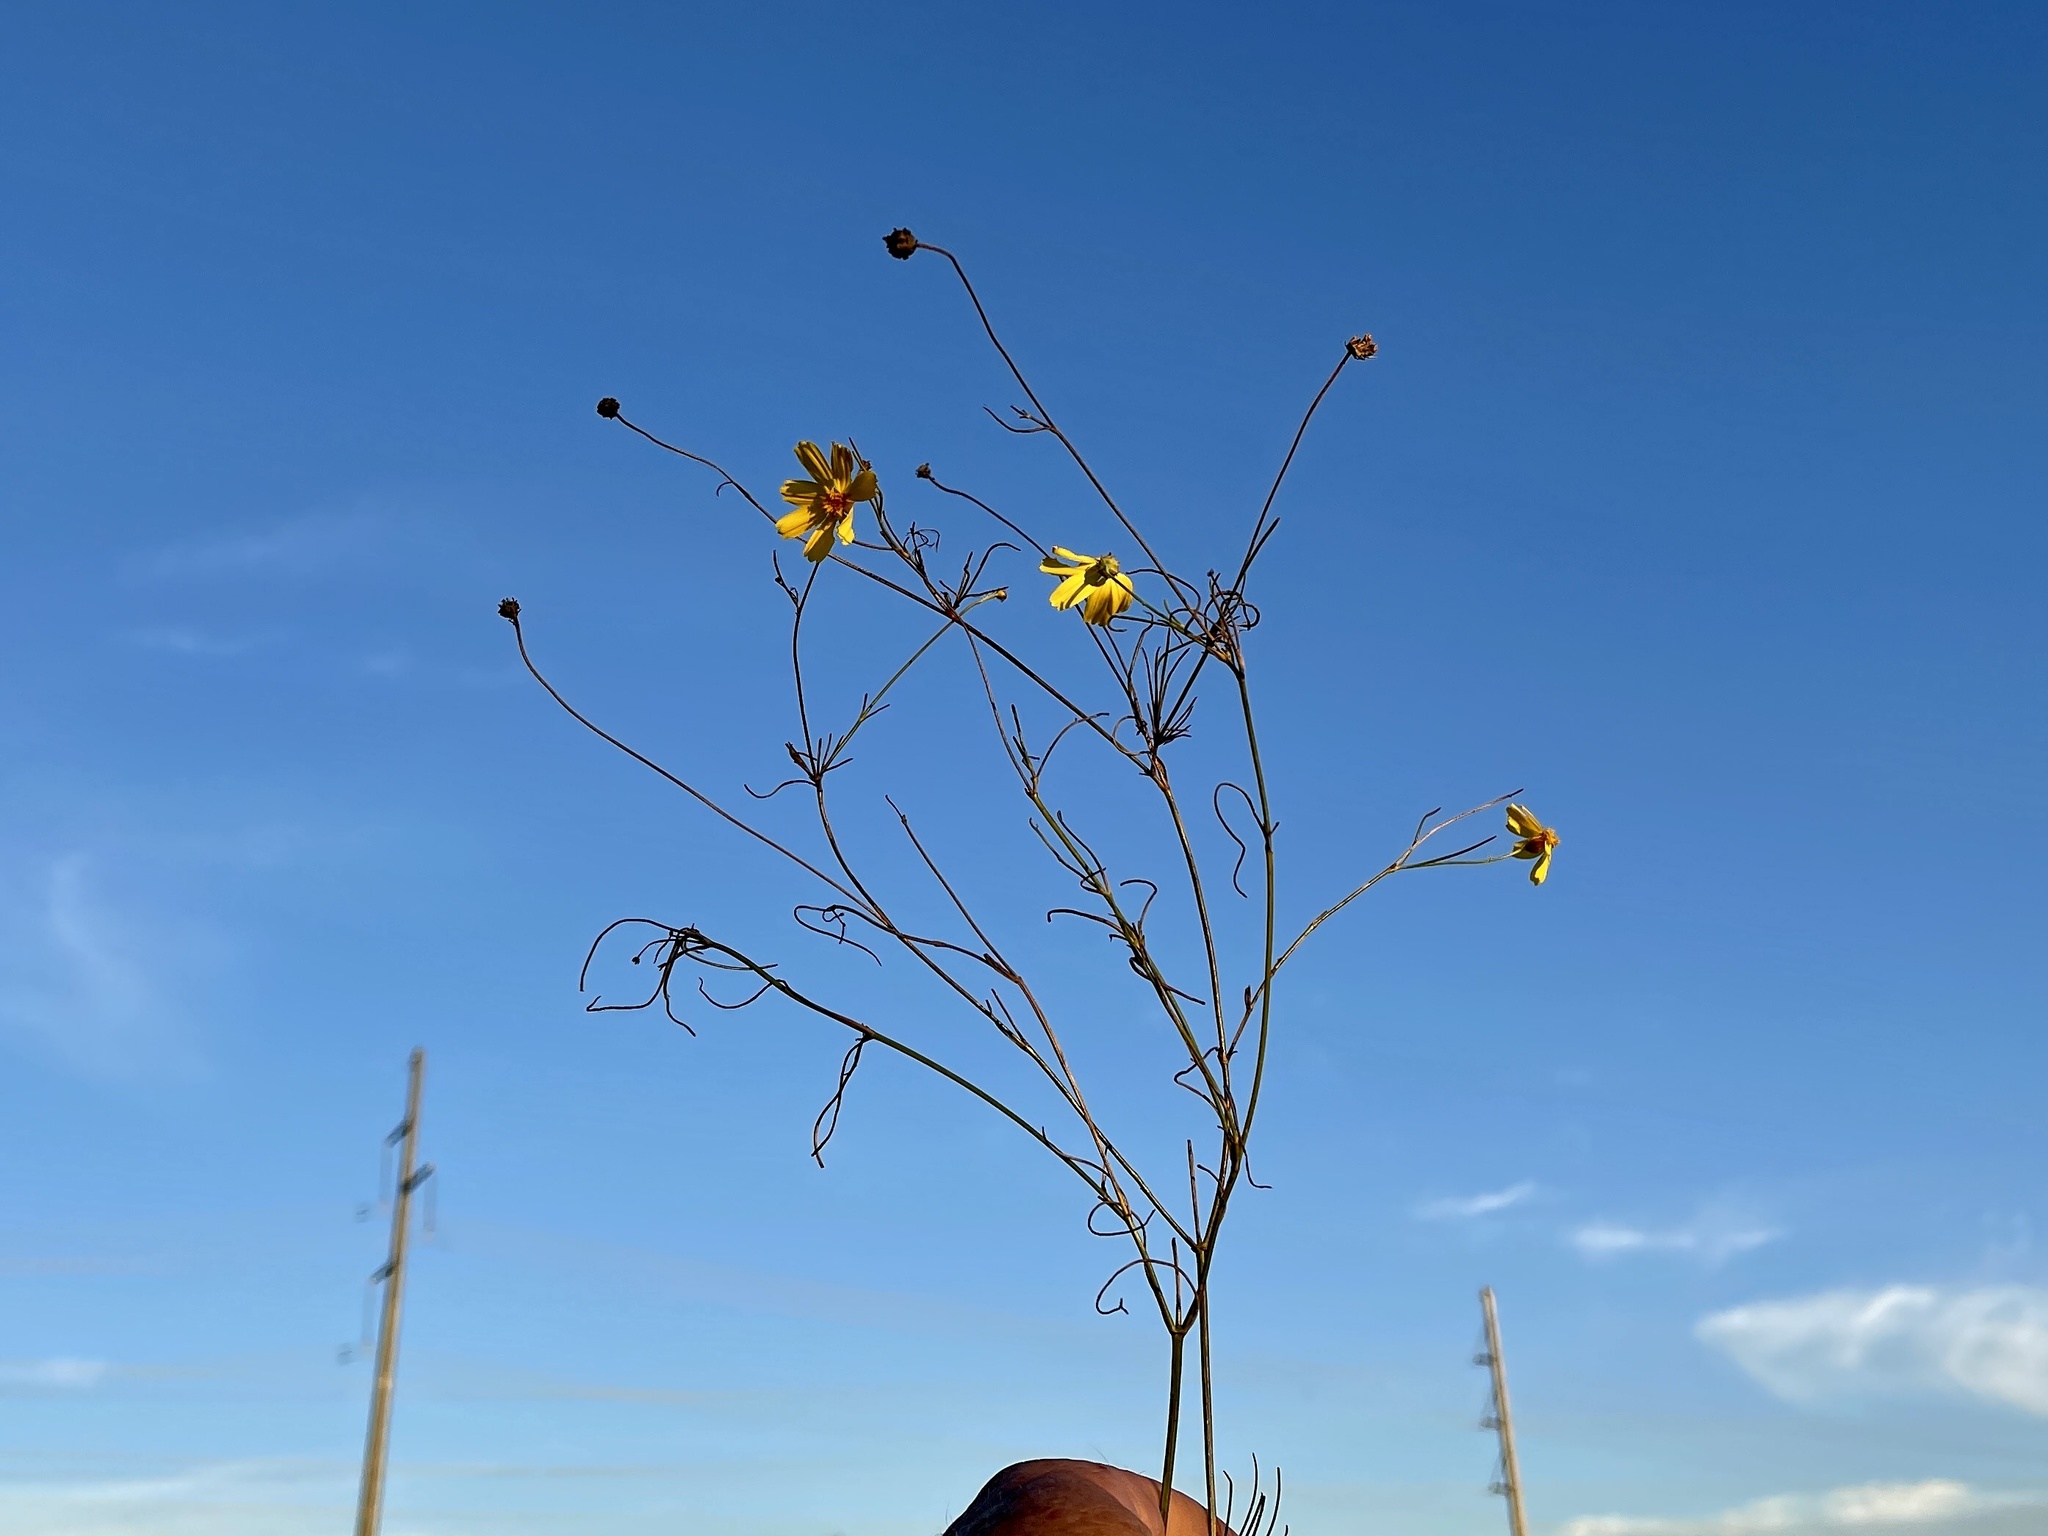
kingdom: Plantae
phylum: Tracheophyta
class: Magnoliopsida
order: Asterales
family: Asteraceae
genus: Thelesperma
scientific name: Thelesperma filifolium
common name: Stiff greenthread
